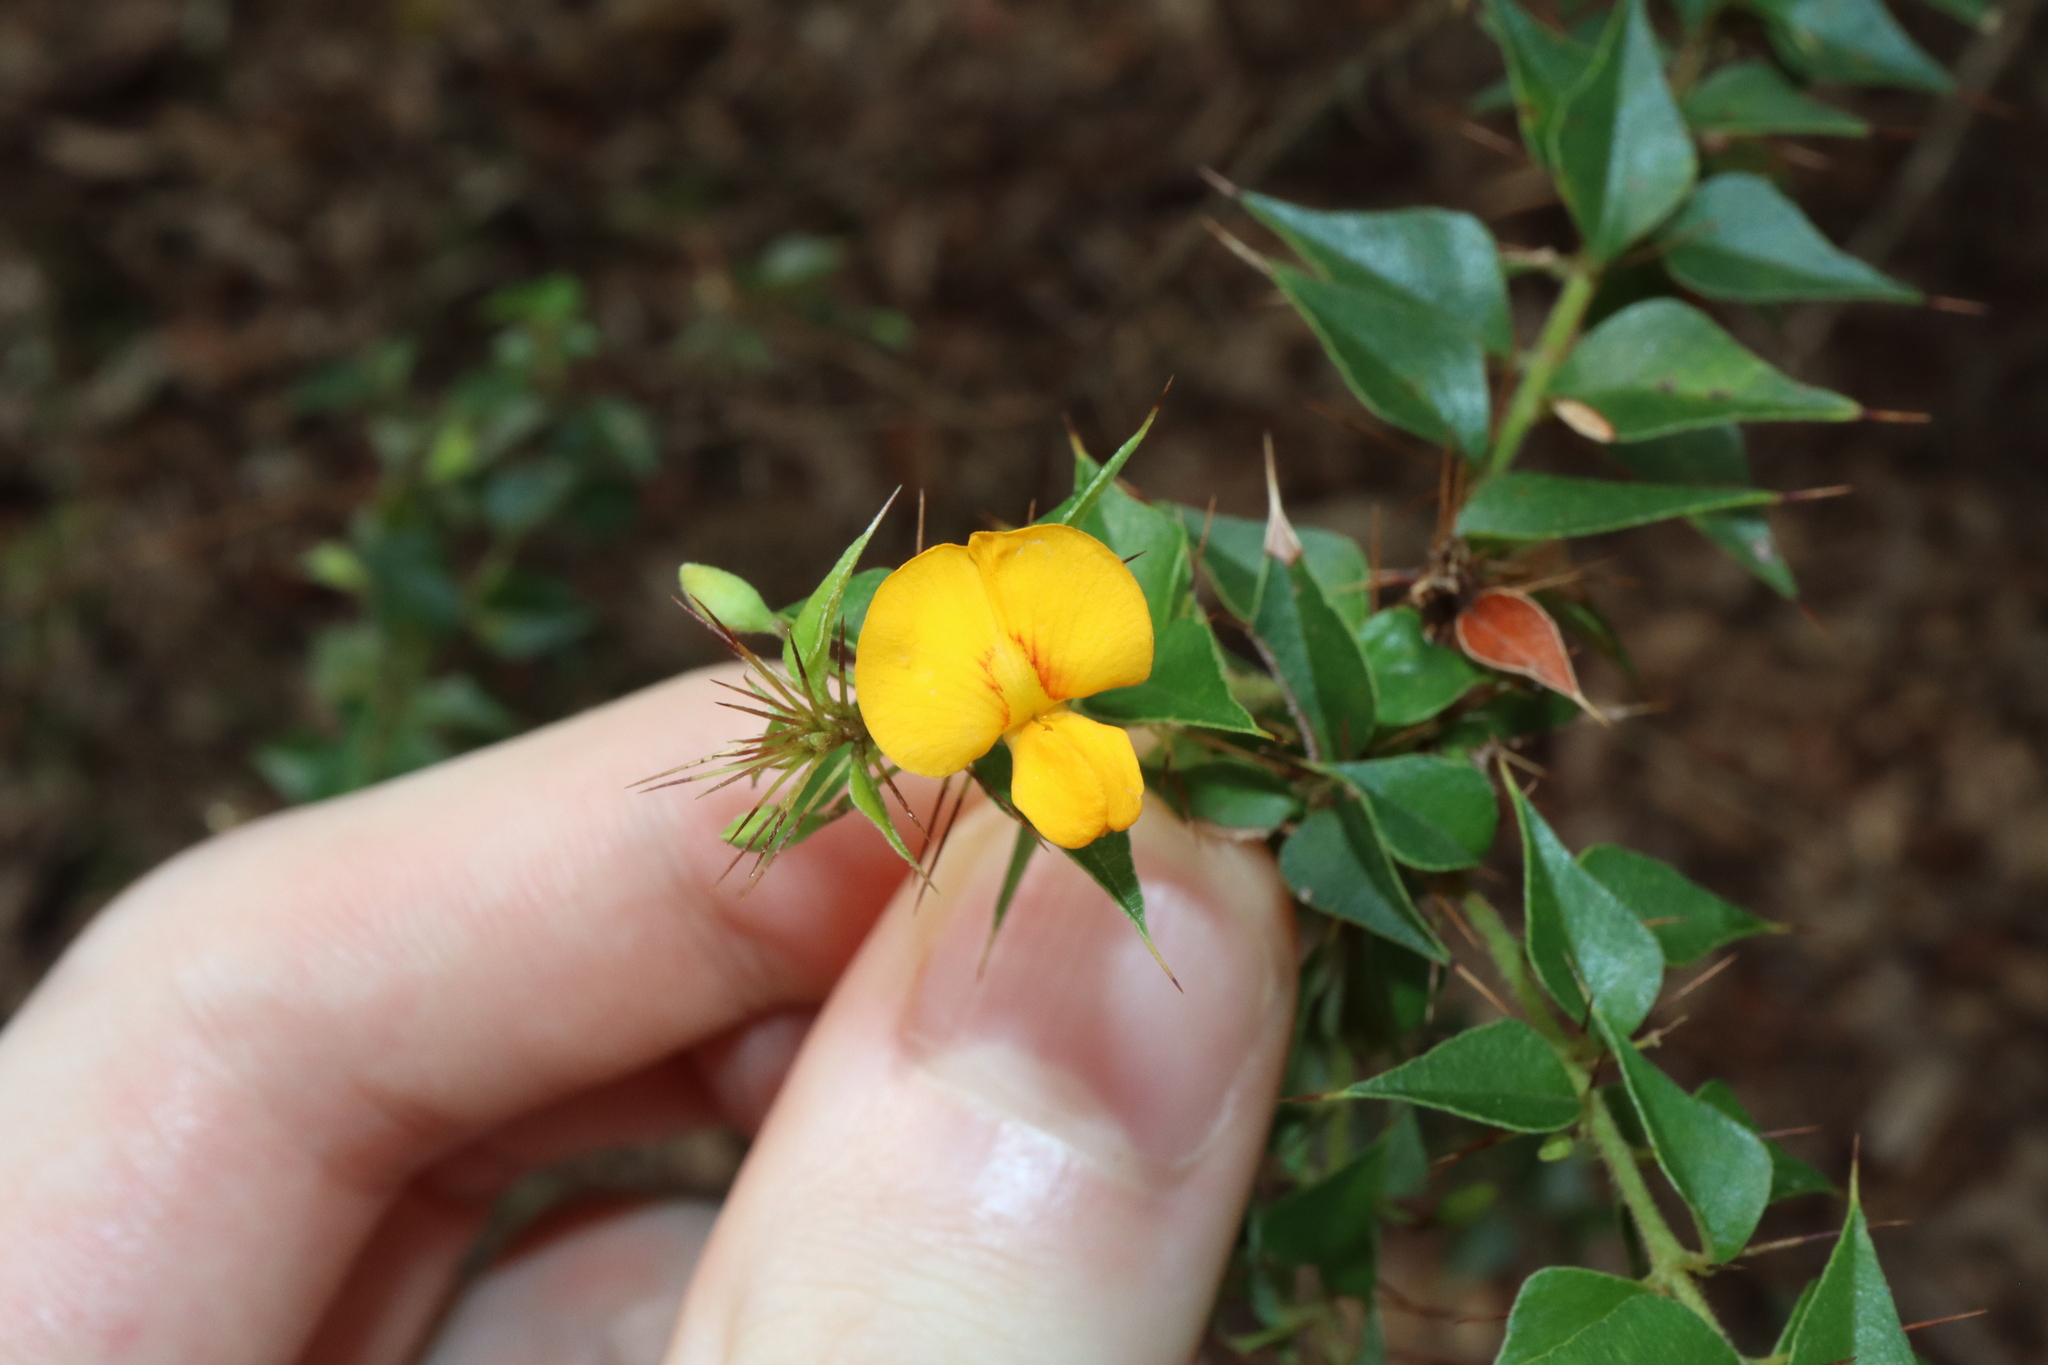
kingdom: Plantae
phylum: Tracheophyta
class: Magnoliopsida
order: Fabales
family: Fabaceae
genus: Podolobium
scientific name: Podolobium aciculiferum
